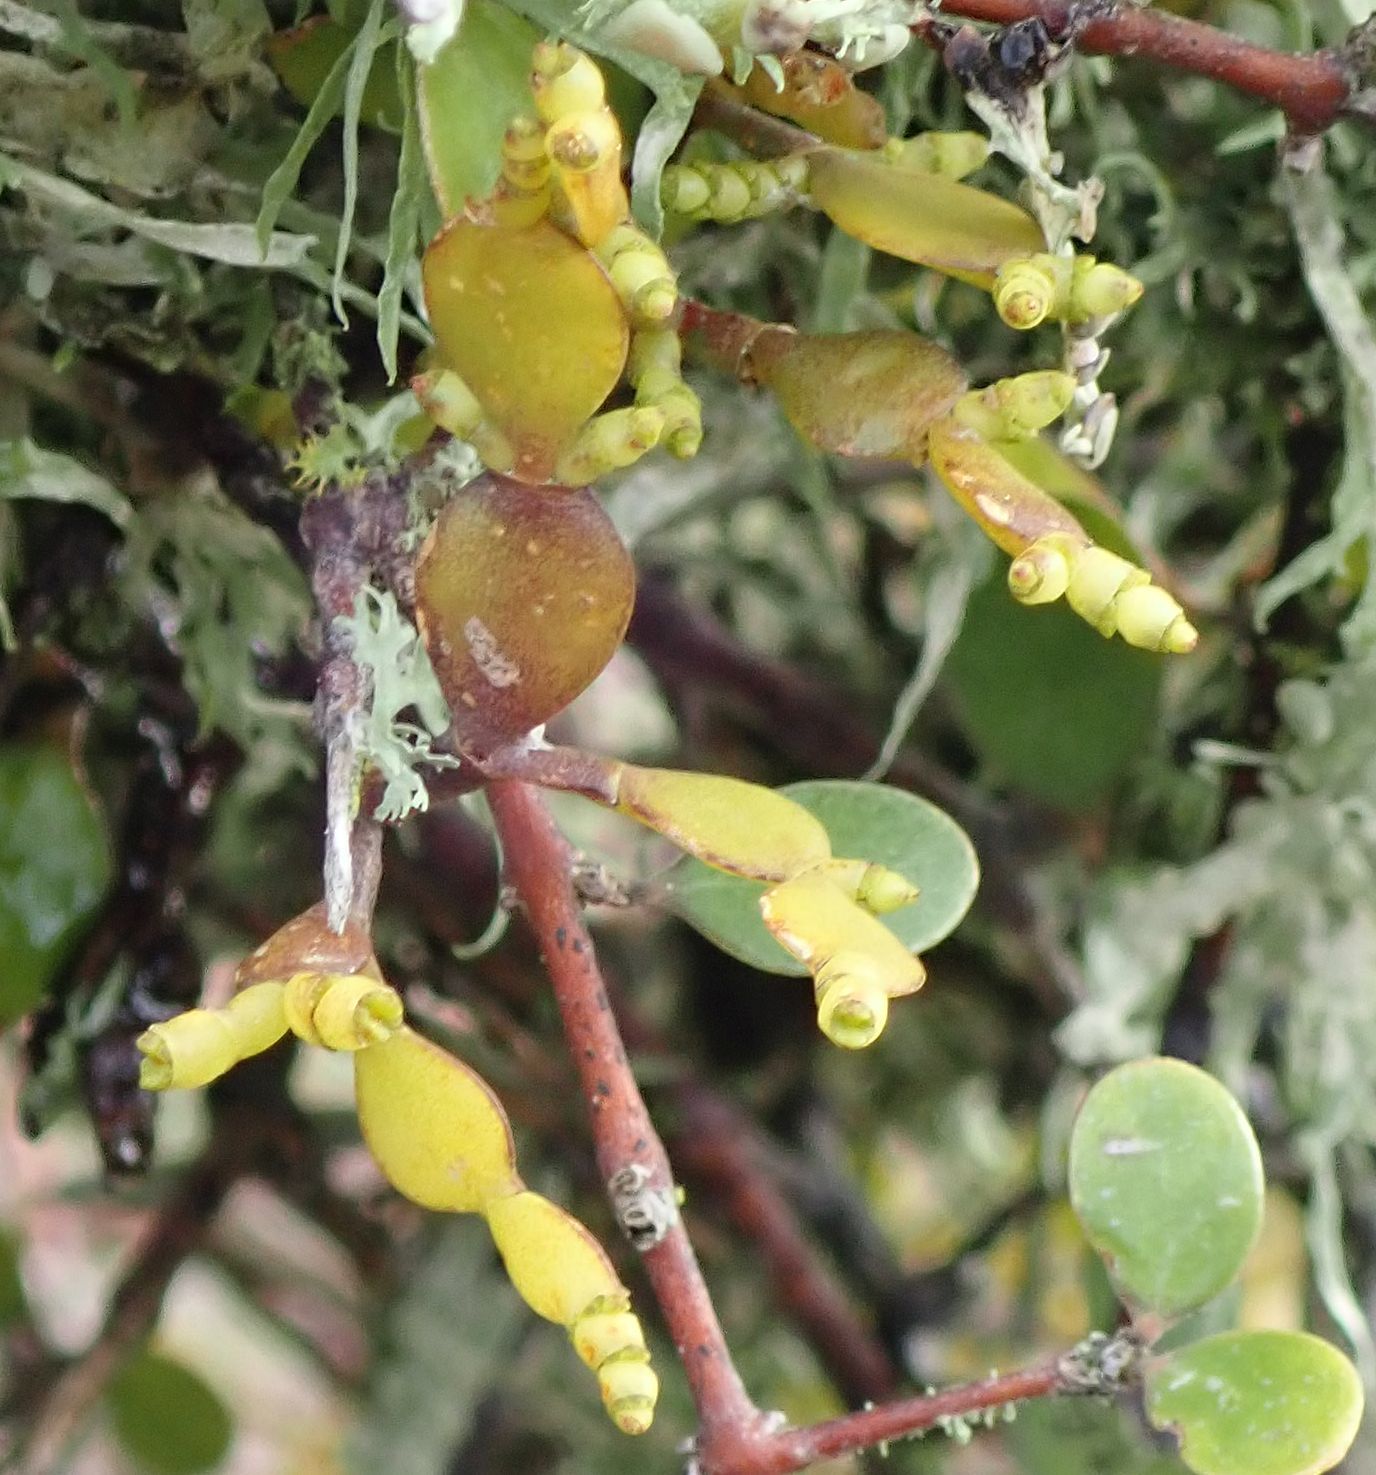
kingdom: Plantae
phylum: Tracheophyta
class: Magnoliopsida
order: Santalales
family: Viscaceae
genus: Korthalsella
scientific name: Korthalsella lindsayi
